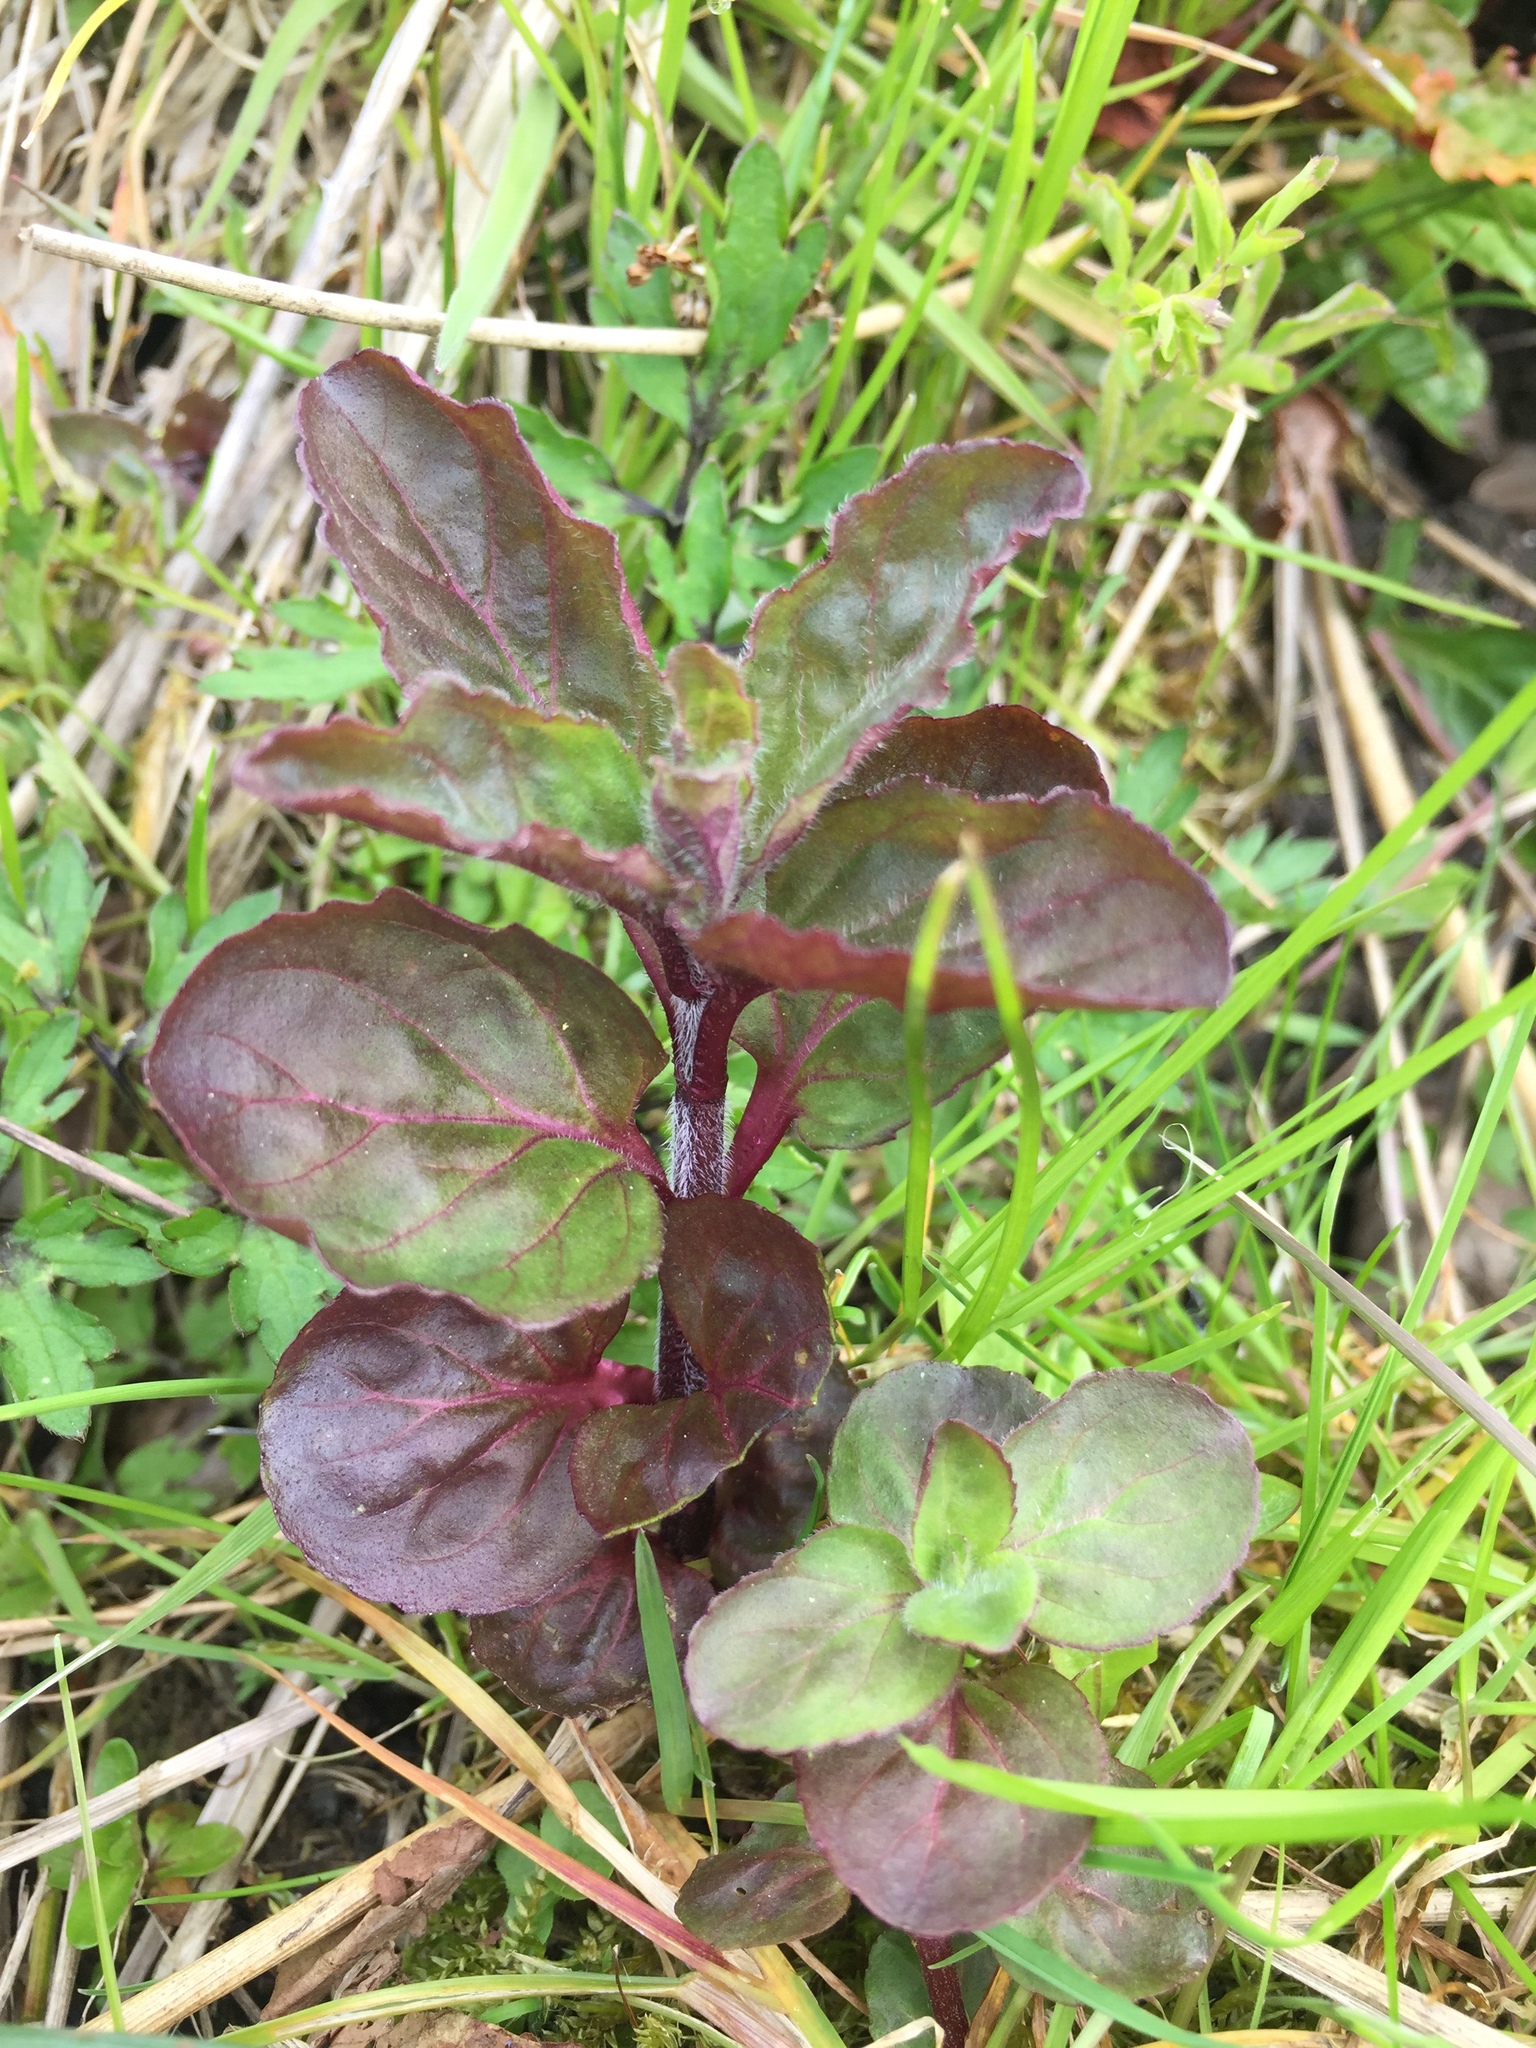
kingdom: Plantae
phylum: Tracheophyta
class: Magnoliopsida
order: Lamiales
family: Lamiaceae
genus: Mentha
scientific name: Mentha aquatica
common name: Water mint
